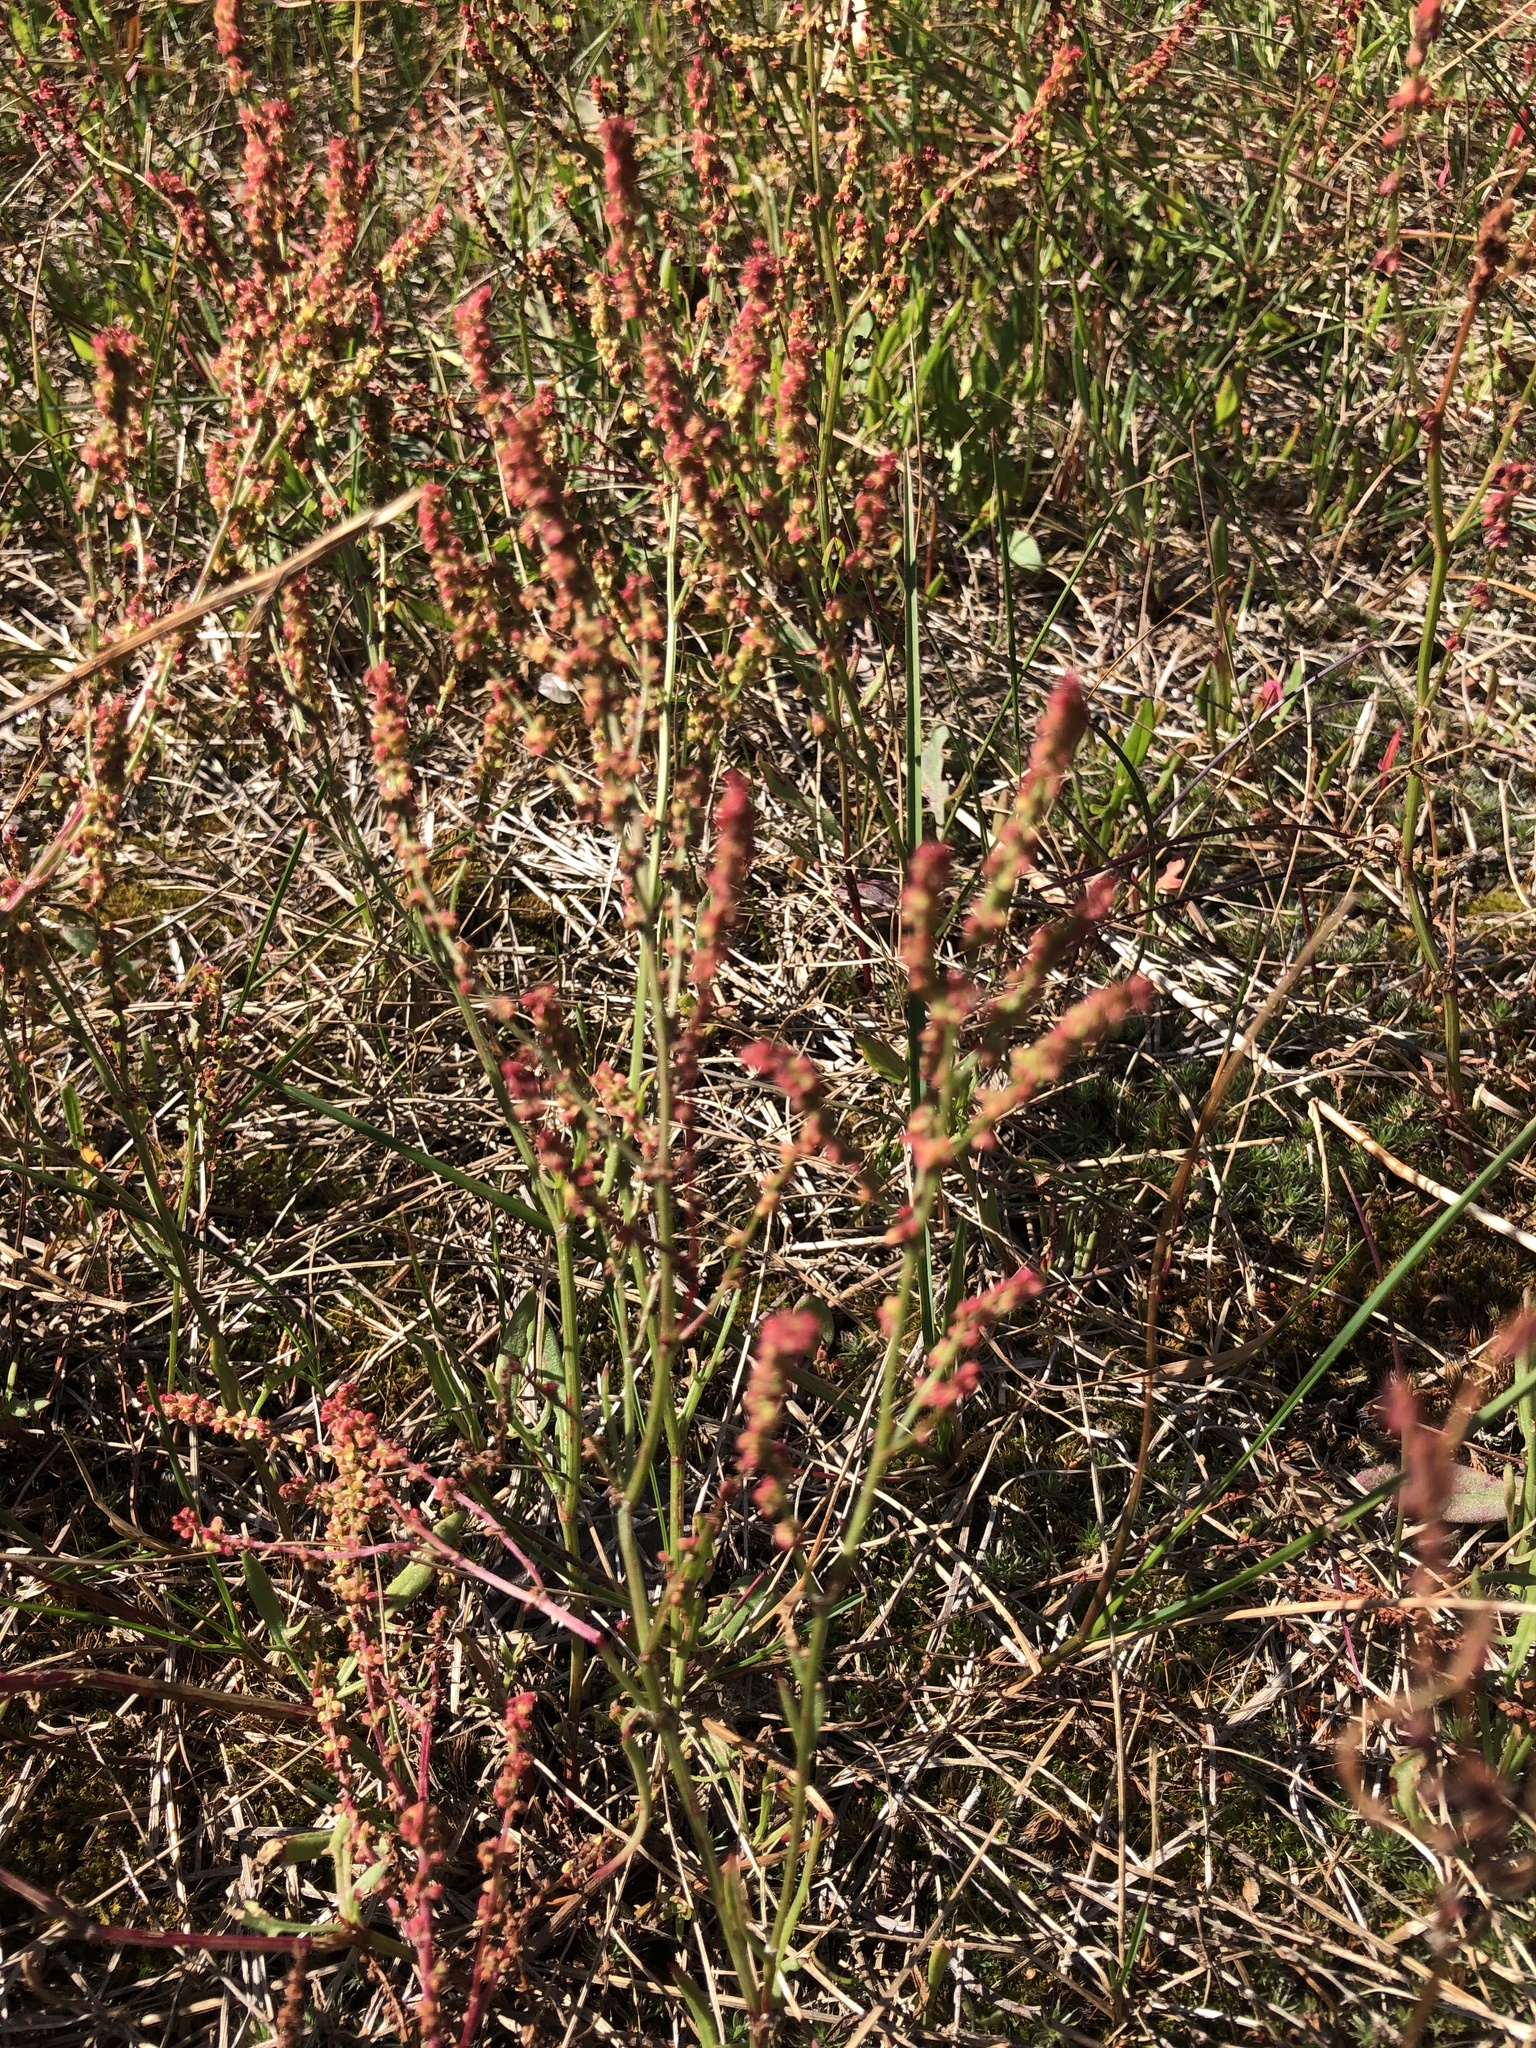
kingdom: Plantae
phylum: Tracheophyta
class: Magnoliopsida
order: Caryophyllales
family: Polygonaceae
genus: Rumex
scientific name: Rumex acetosella
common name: Common sheep sorrel
